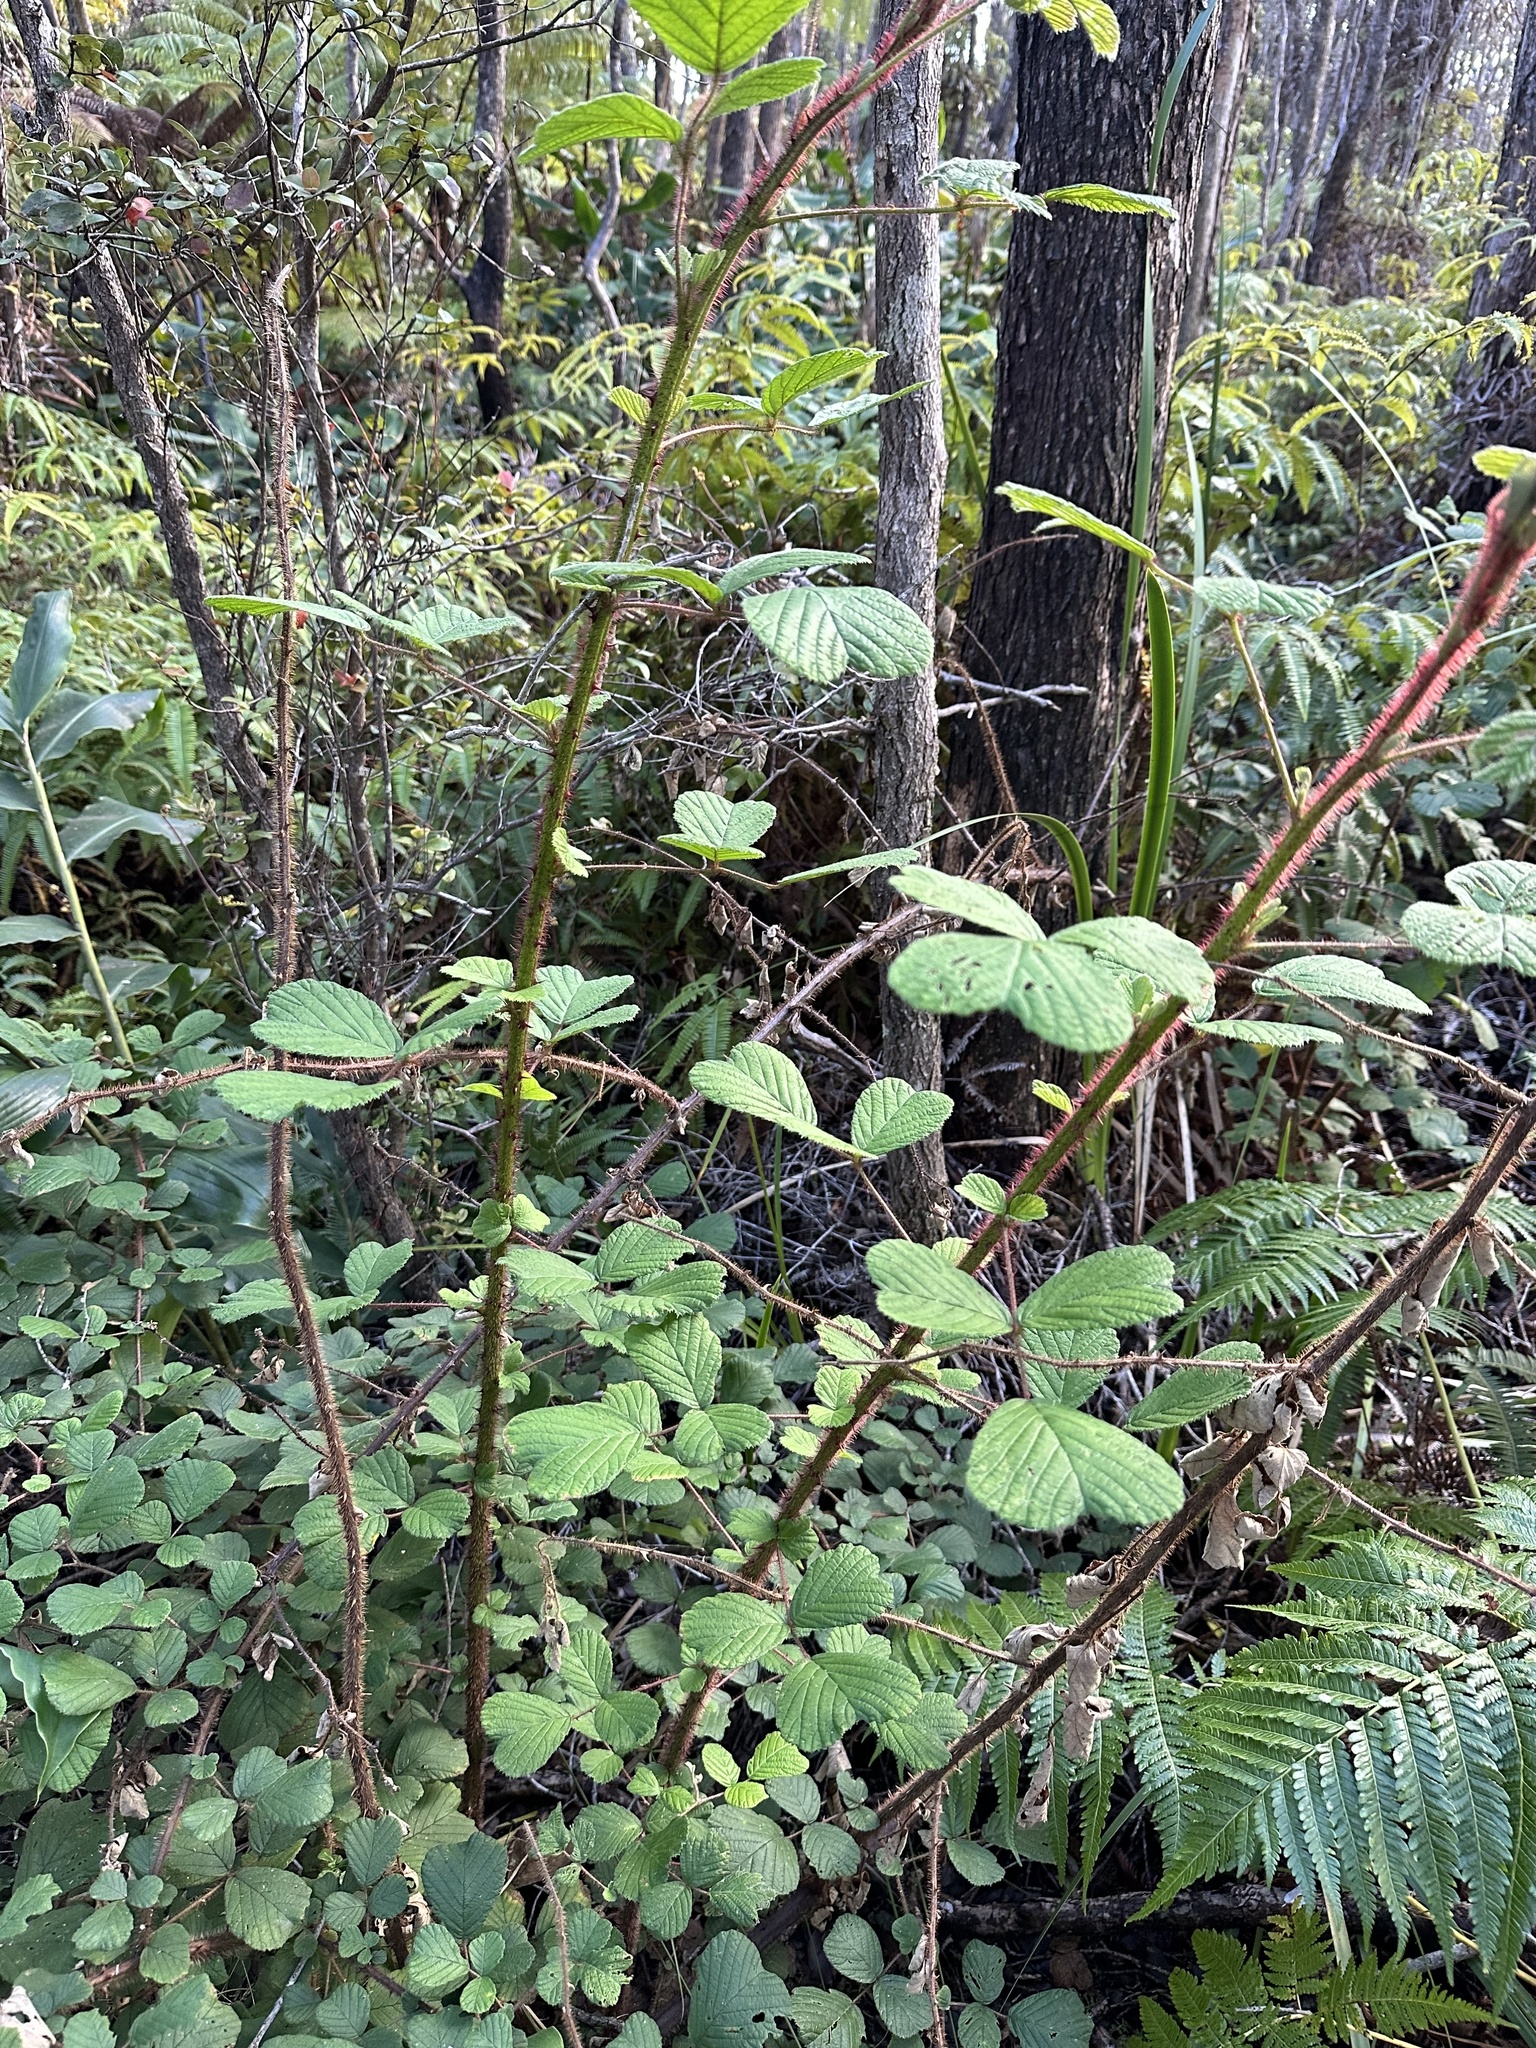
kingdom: Plantae
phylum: Tracheophyta
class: Magnoliopsida
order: Rosales
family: Rosaceae
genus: Rubus
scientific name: Rubus ellipticus
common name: Cheeseberry
